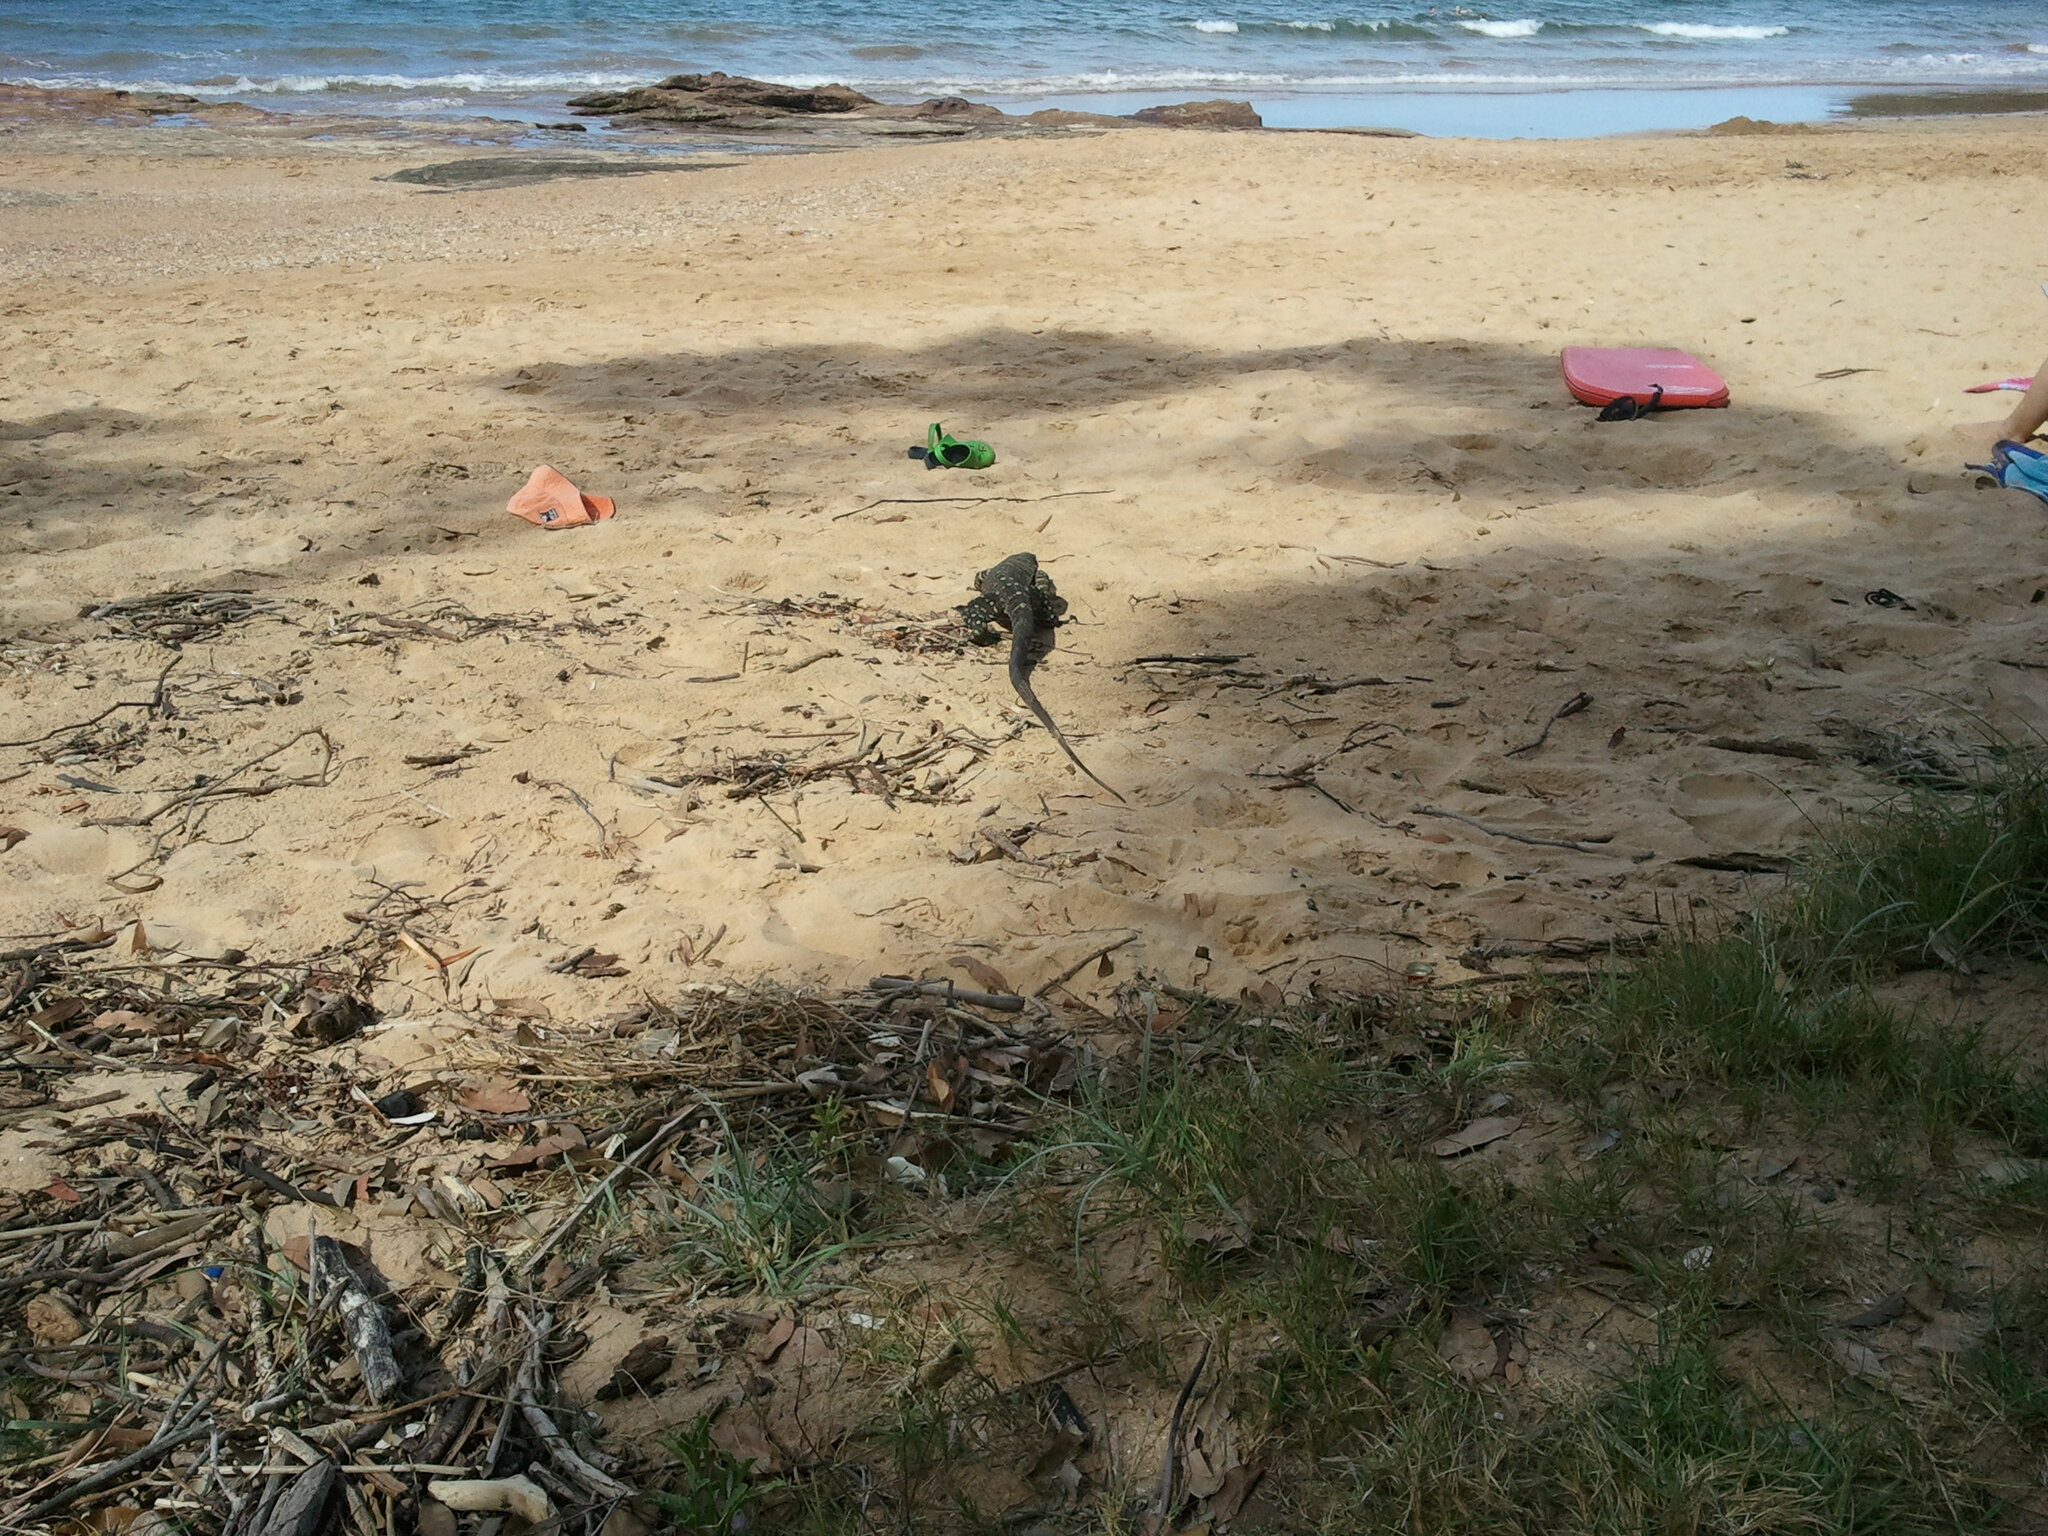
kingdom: Animalia
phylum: Chordata
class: Squamata
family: Varanidae
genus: Varanus
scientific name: Varanus varius
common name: Lace monitor
